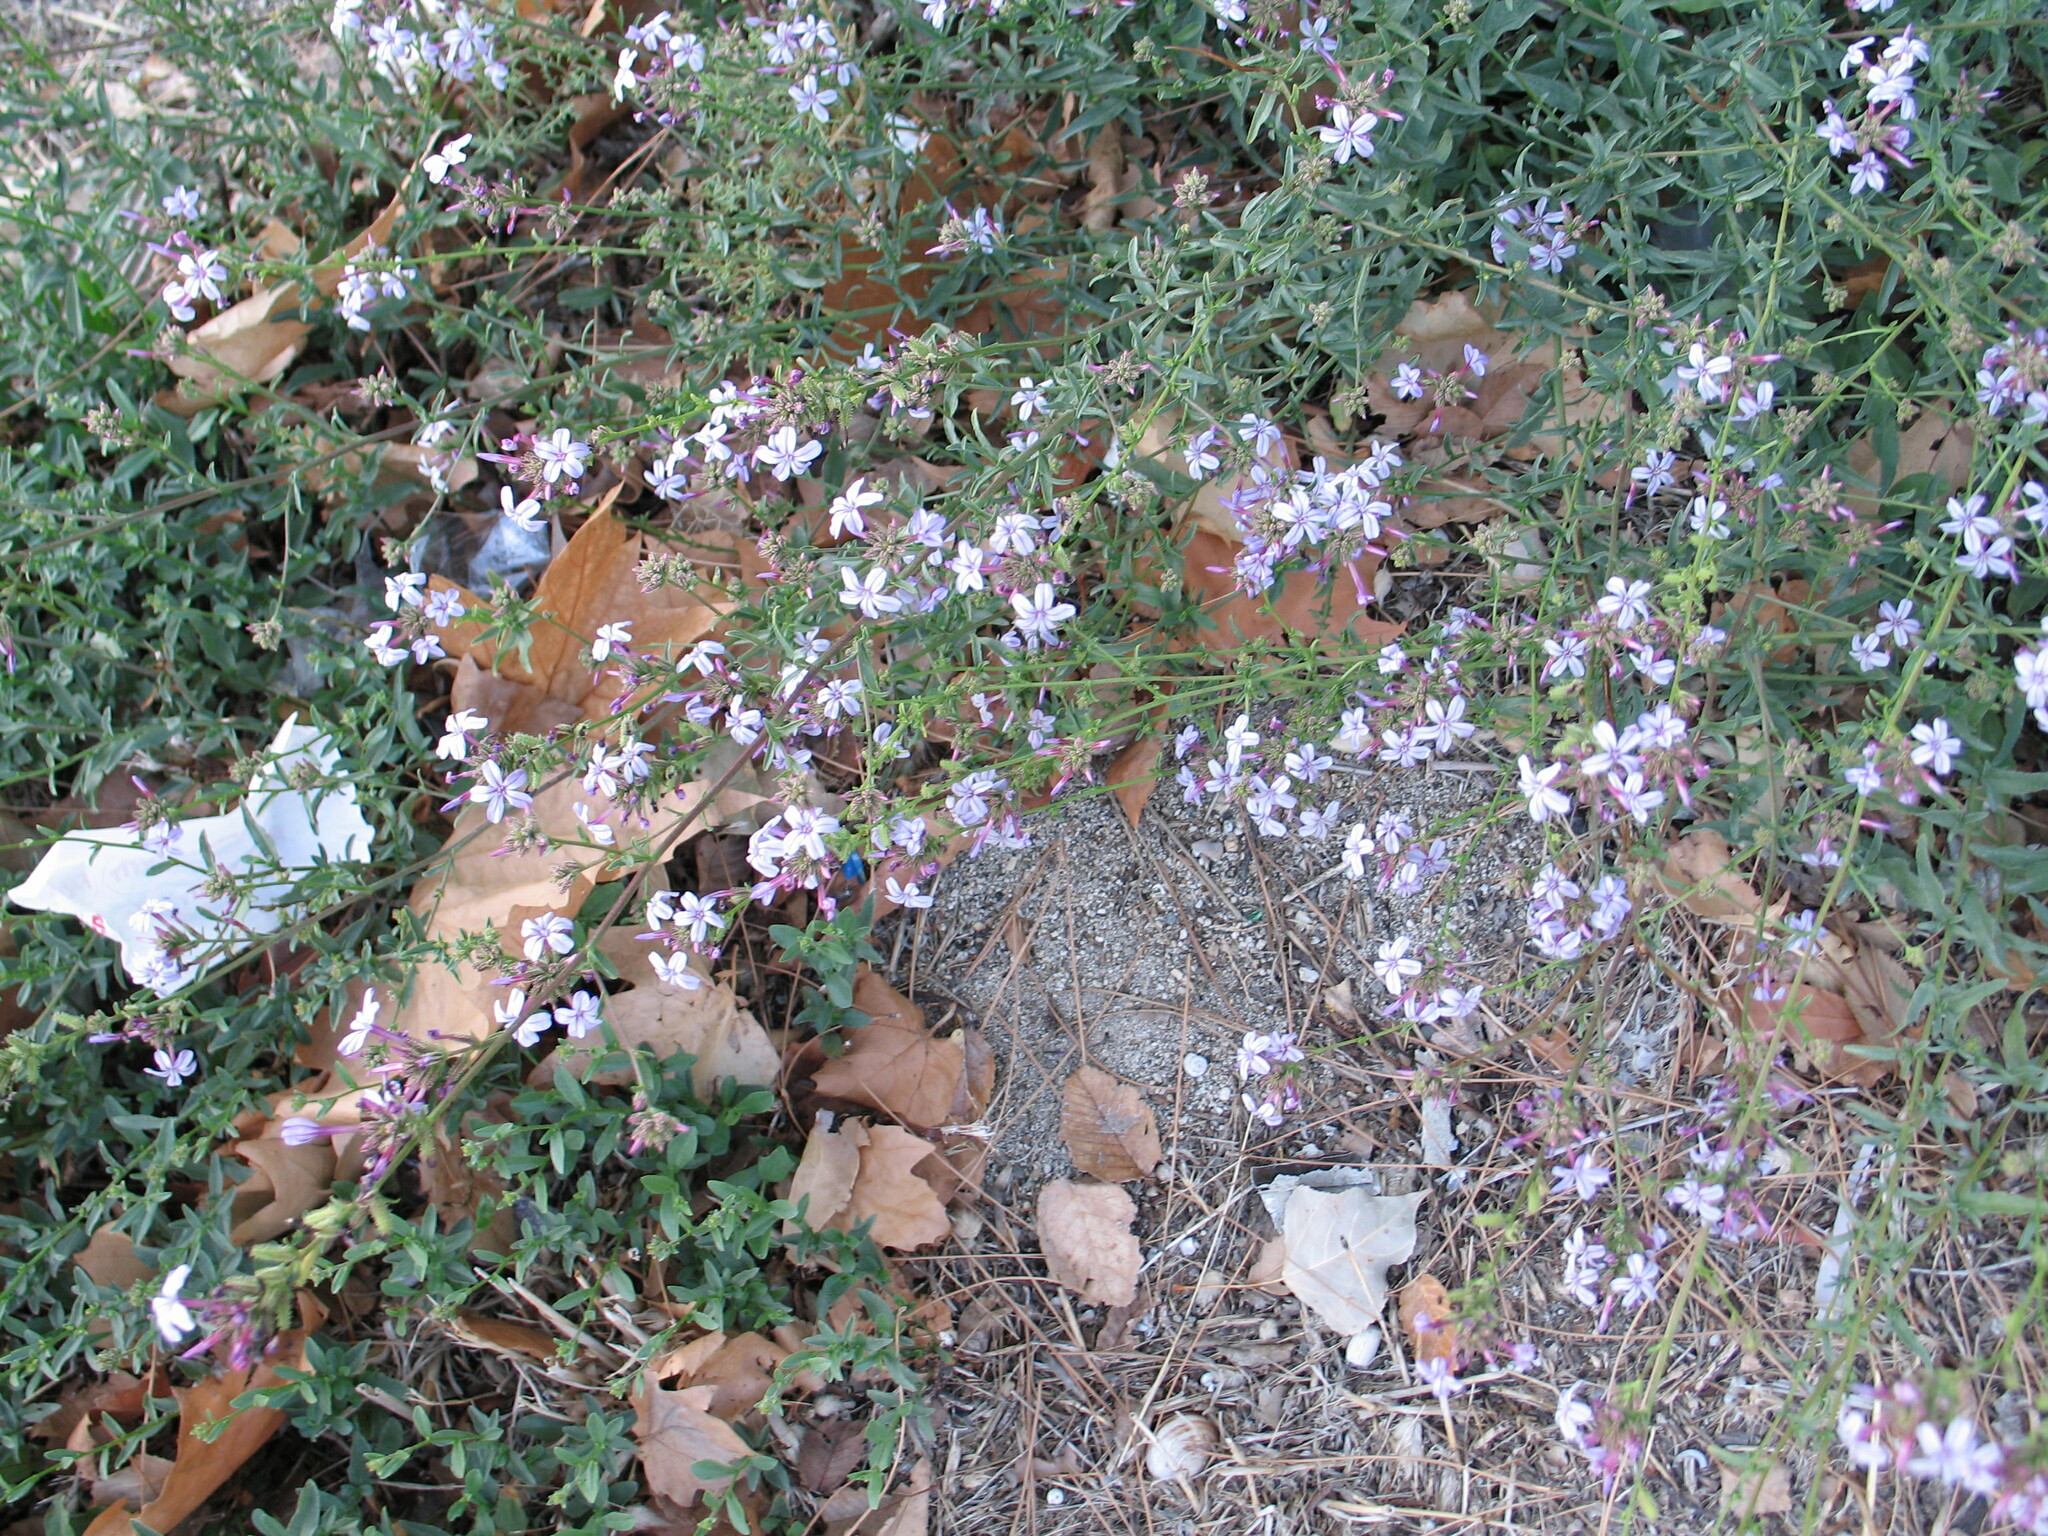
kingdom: Plantae
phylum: Tracheophyta
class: Magnoliopsida
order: Caryophyllales
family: Plumbaginaceae
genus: Plumbago
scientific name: Plumbago europaea
